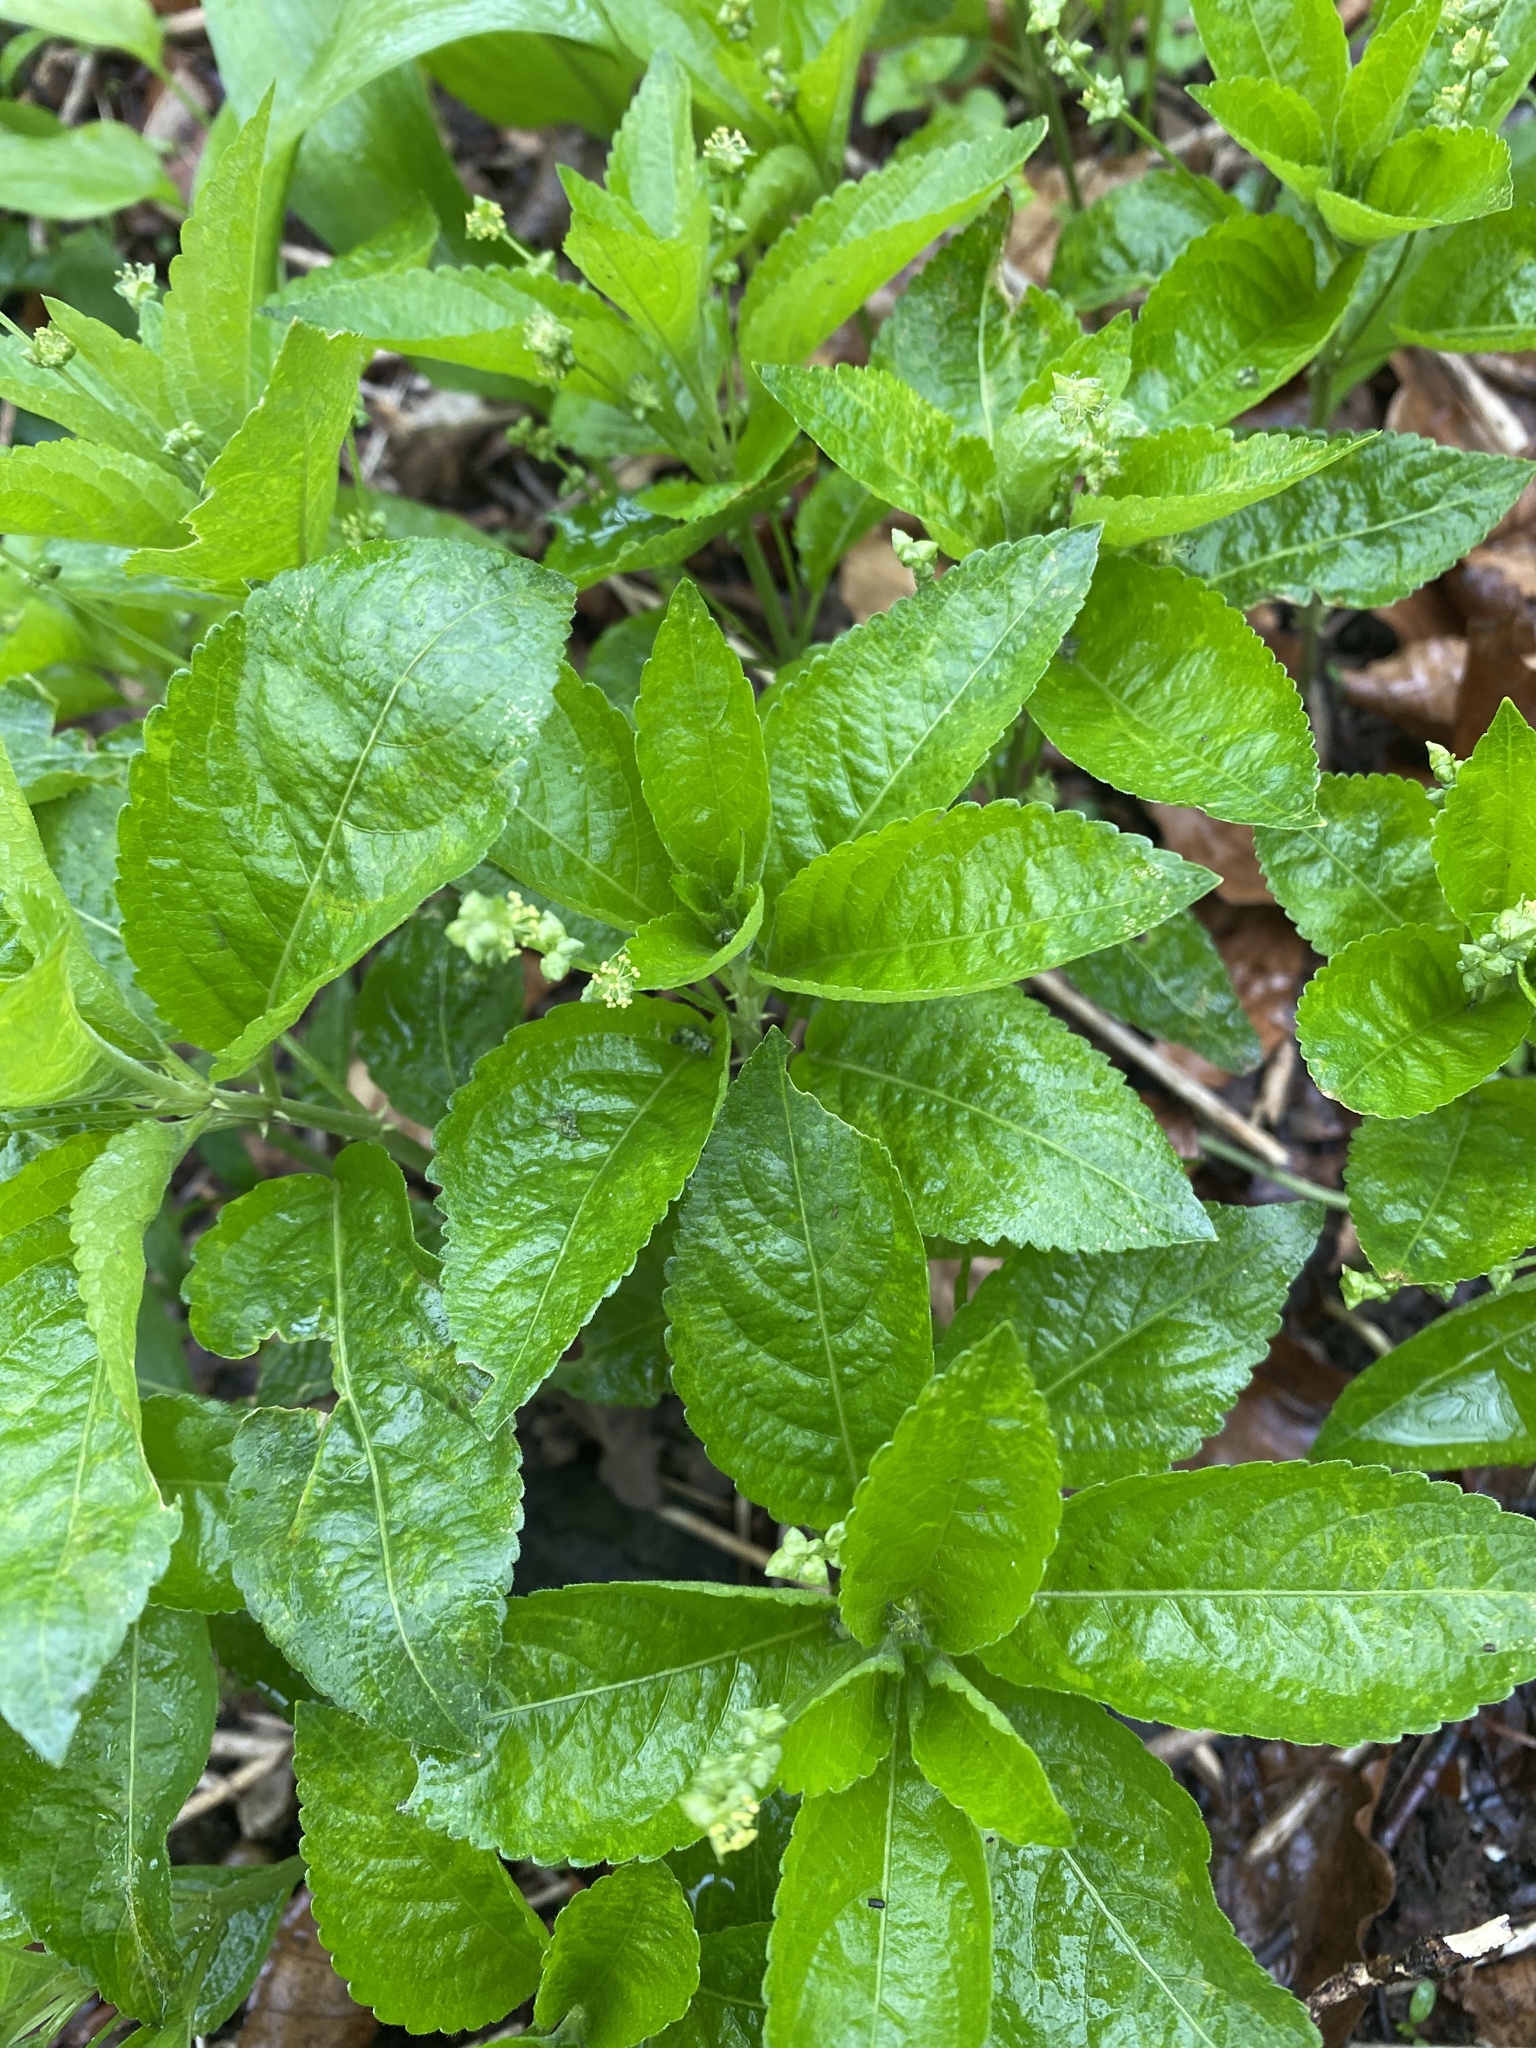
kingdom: Plantae
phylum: Tracheophyta
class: Magnoliopsida
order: Malpighiales
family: Euphorbiaceae
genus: Mercurialis
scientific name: Mercurialis perennis
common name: Dog mercury
